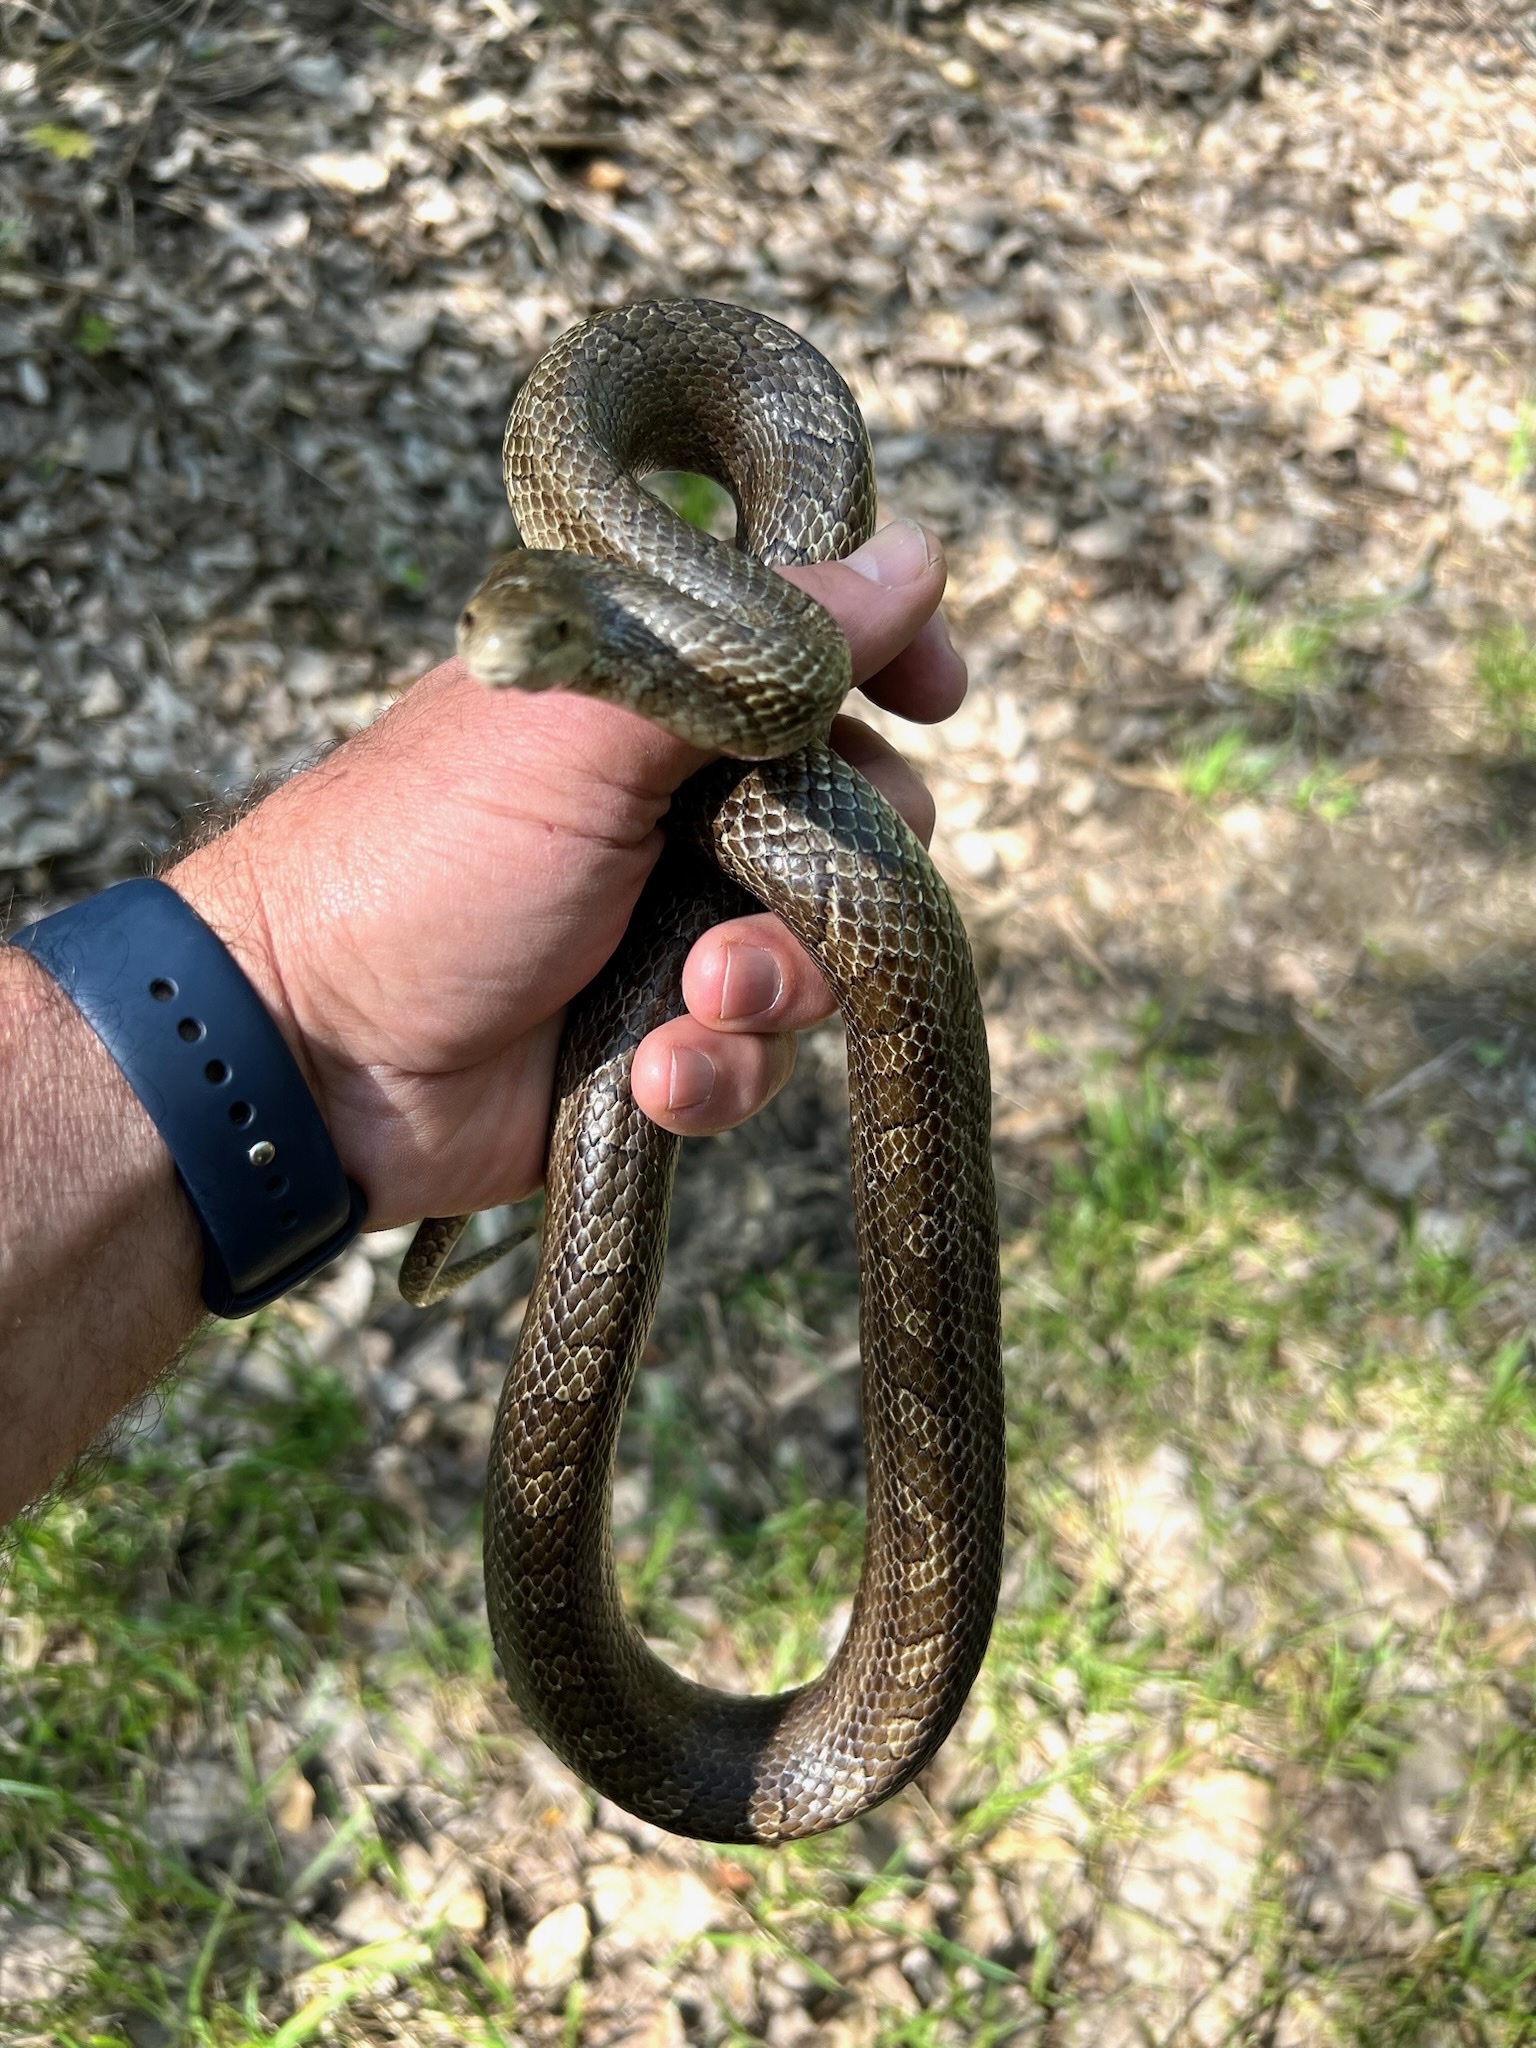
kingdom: Animalia
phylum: Chordata
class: Squamata
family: Colubridae
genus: Lampropeltis
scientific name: Lampropeltis calligaster
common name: Prairie kingsnake
